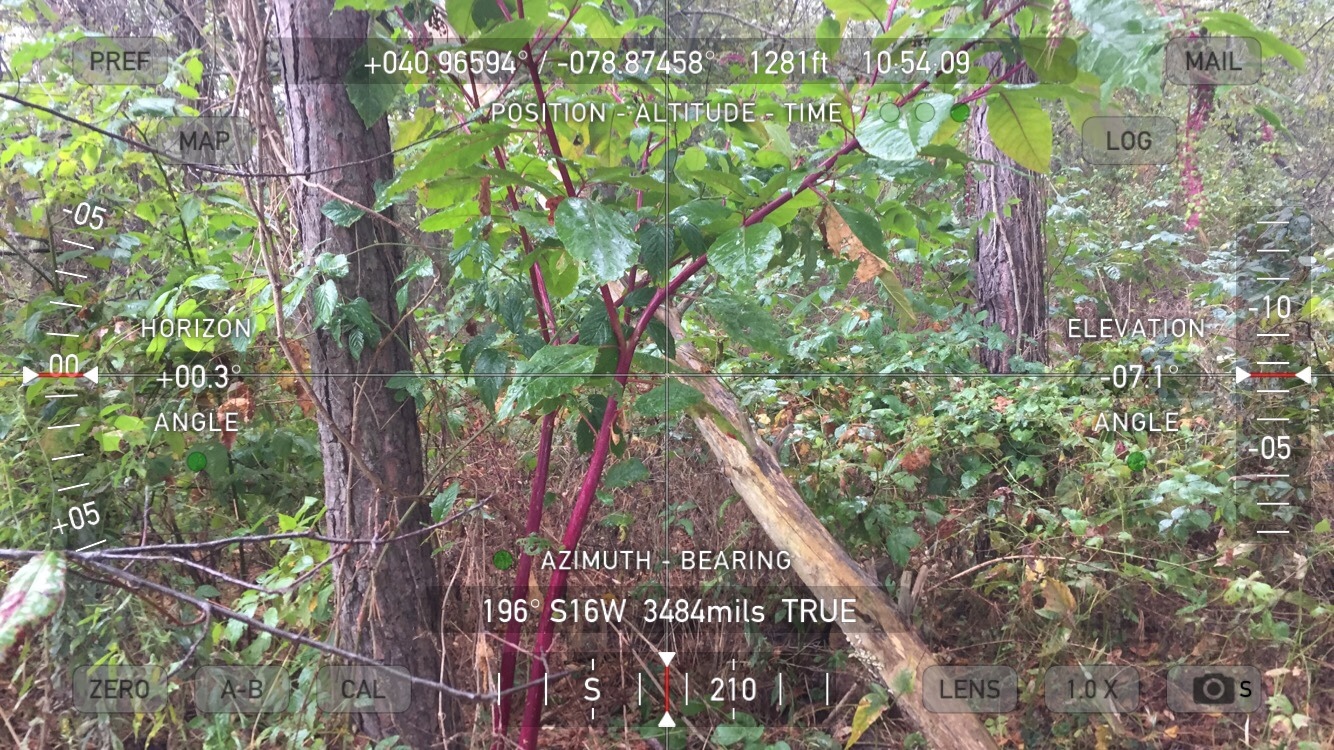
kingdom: Plantae
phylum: Tracheophyta
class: Magnoliopsida
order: Caryophyllales
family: Phytolaccaceae
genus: Phytolacca
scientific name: Phytolacca americana
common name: American pokeweed
